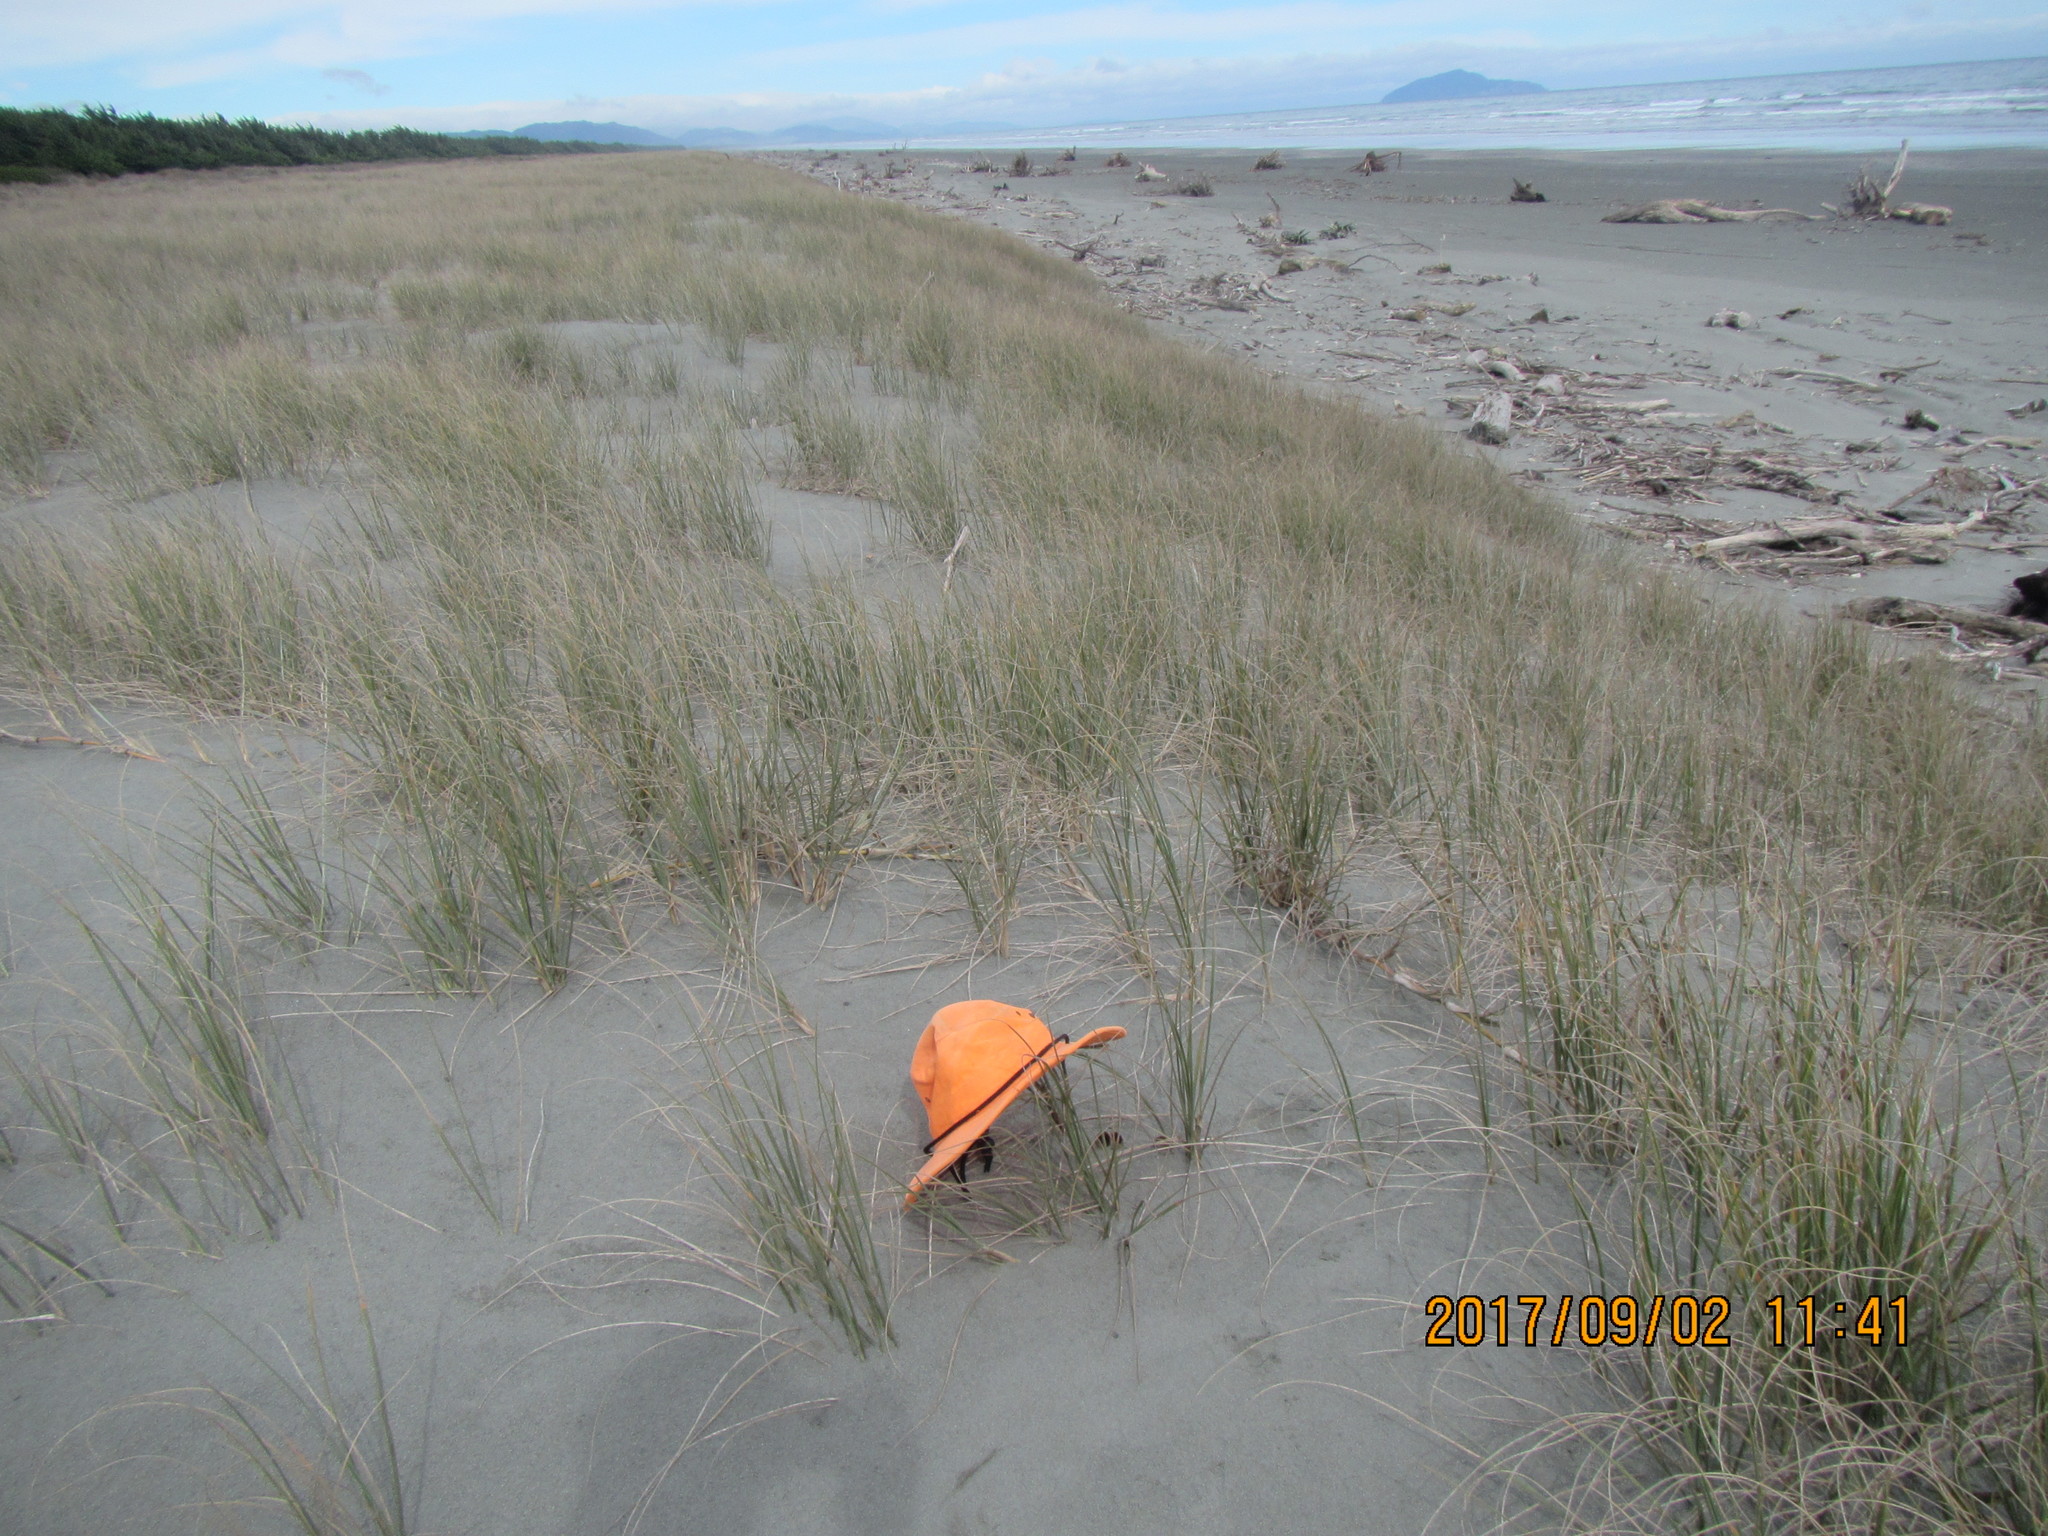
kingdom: Fungi
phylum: Ascomycota
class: Pezizomycetes
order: Pezizales
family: Pezizaceae
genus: Peziza
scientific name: Peziza oceanica
